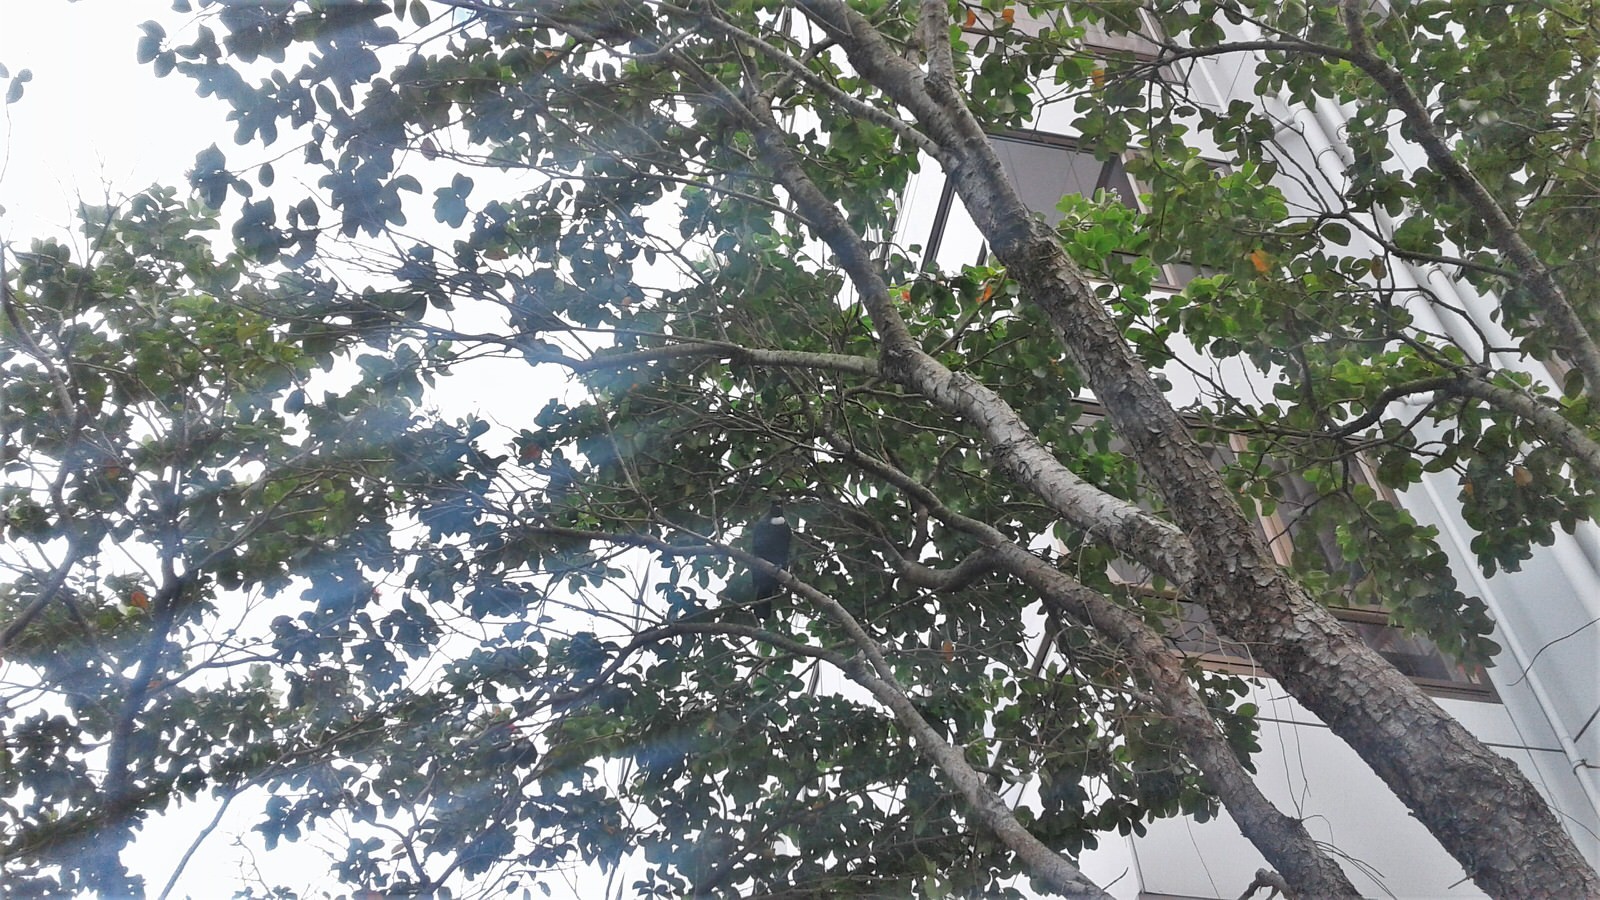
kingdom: Animalia
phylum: Chordata
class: Aves
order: Passeriformes
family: Meliphagidae
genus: Prosthemadera
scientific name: Prosthemadera novaeseelandiae
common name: Tui
